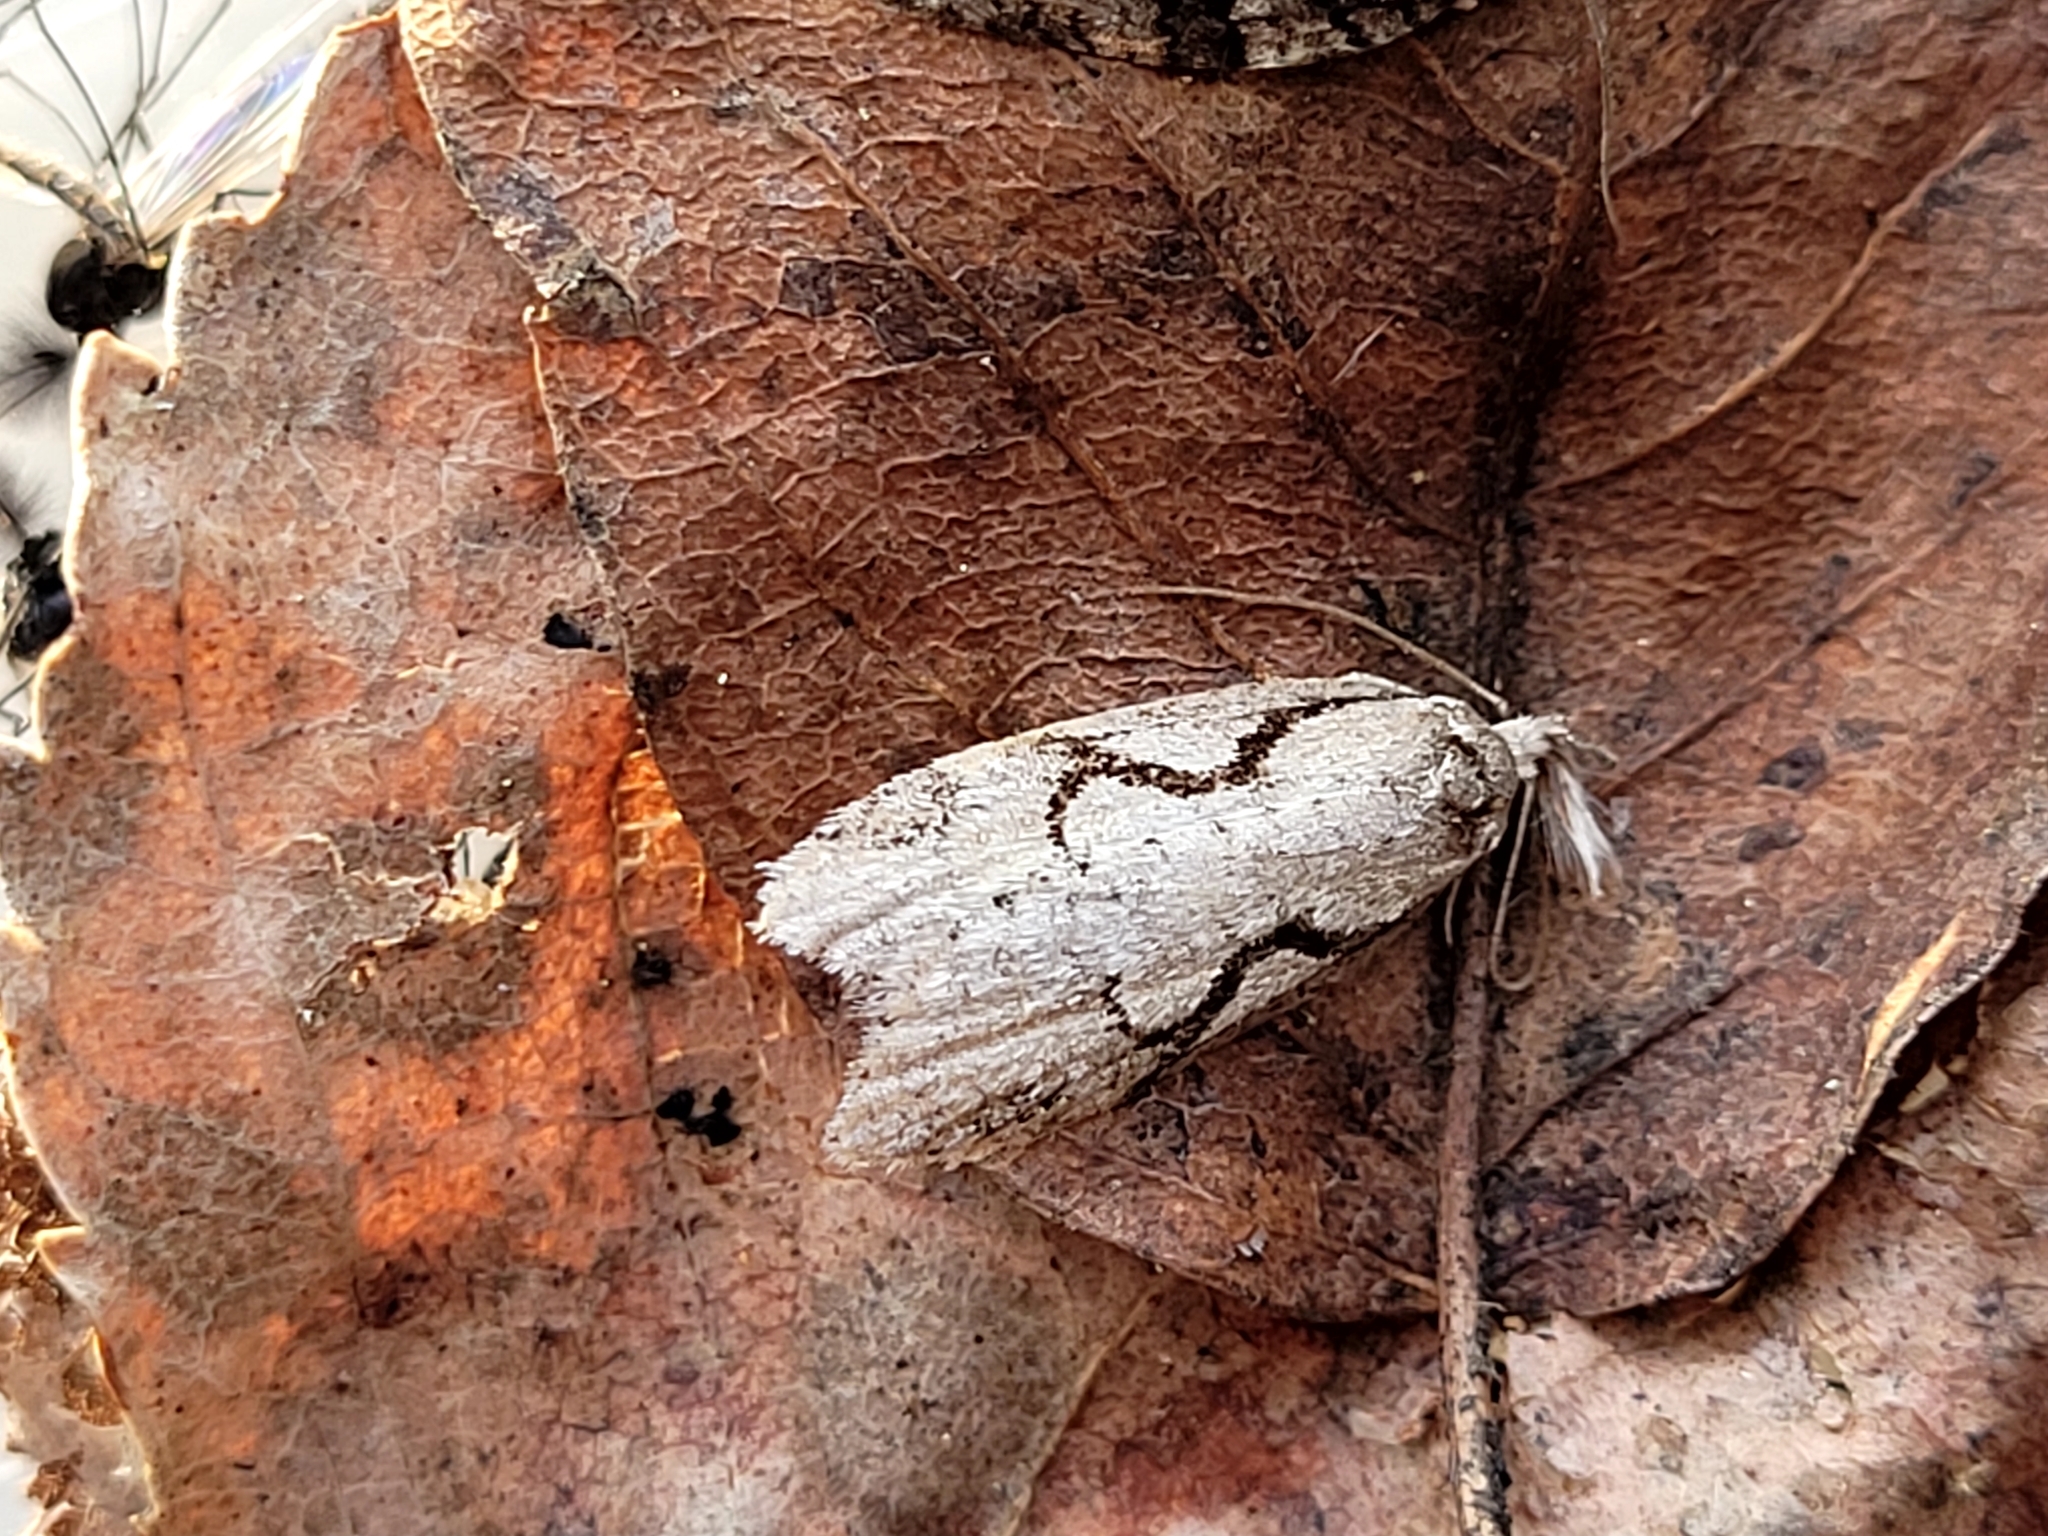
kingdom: Animalia
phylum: Arthropoda
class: Insecta
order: Lepidoptera
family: Depressariidae
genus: Semioscopis
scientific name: Semioscopis packardella
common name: Packard's concealer moth
